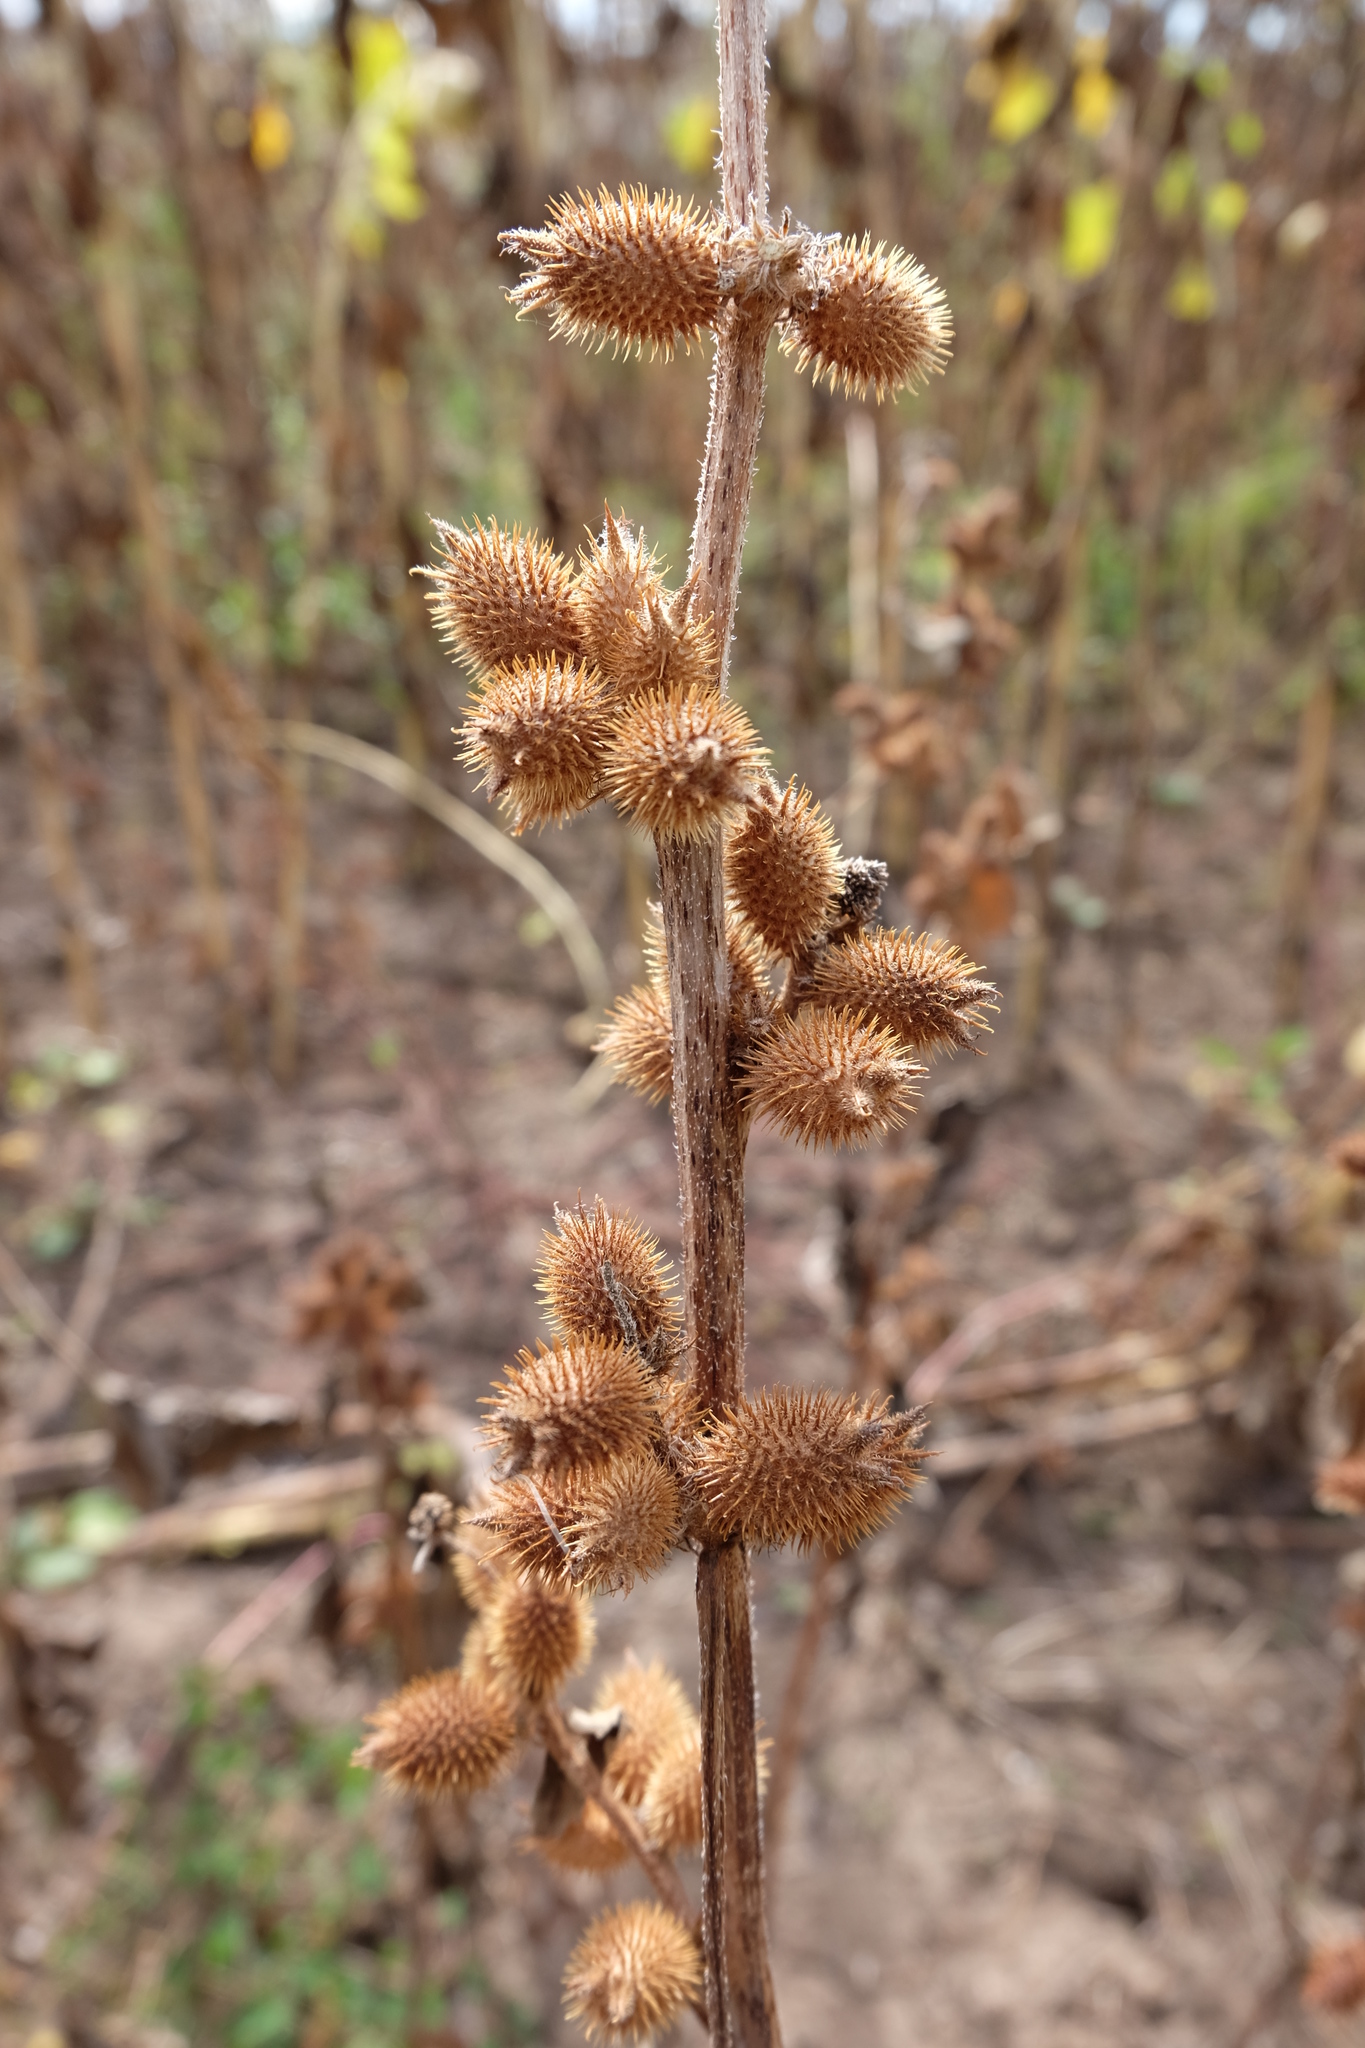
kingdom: Plantae
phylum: Tracheophyta
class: Magnoliopsida
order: Asterales
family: Asteraceae
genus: Xanthium
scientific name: Xanthium orientale
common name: Californian burr
